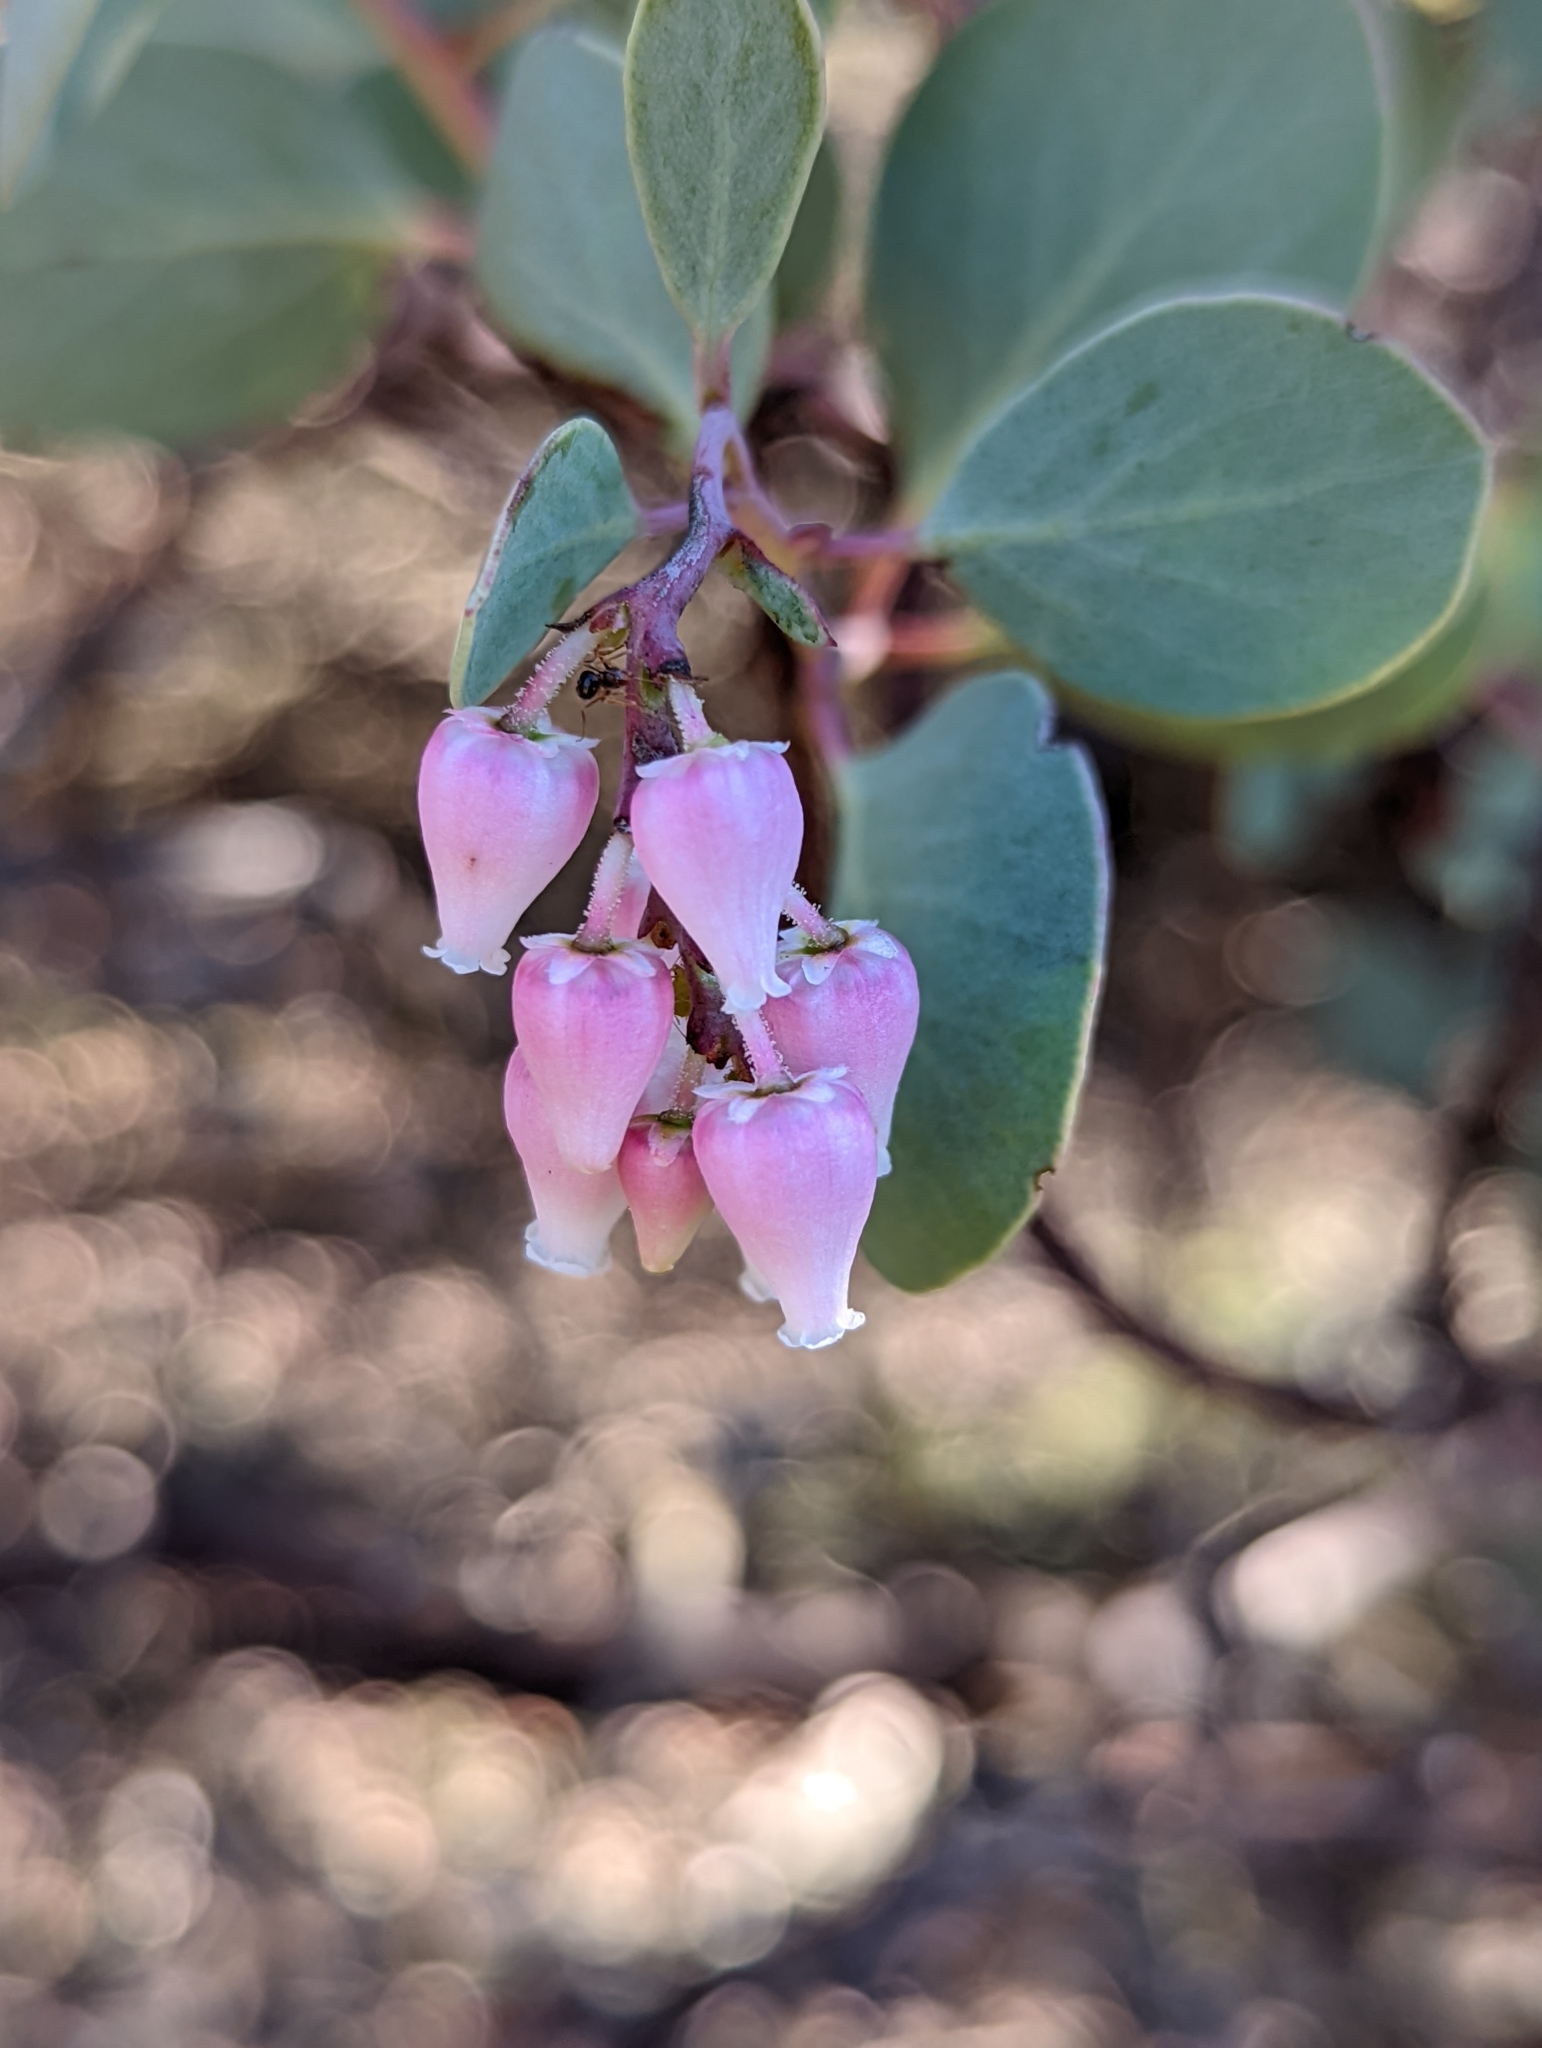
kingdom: Plantae
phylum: Tracheophyta
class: Magnoliopsida
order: Ericales
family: Ericaceae
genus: Arctostaphylos
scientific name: Arctostaphylos viscida
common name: White-leaf manzanita
